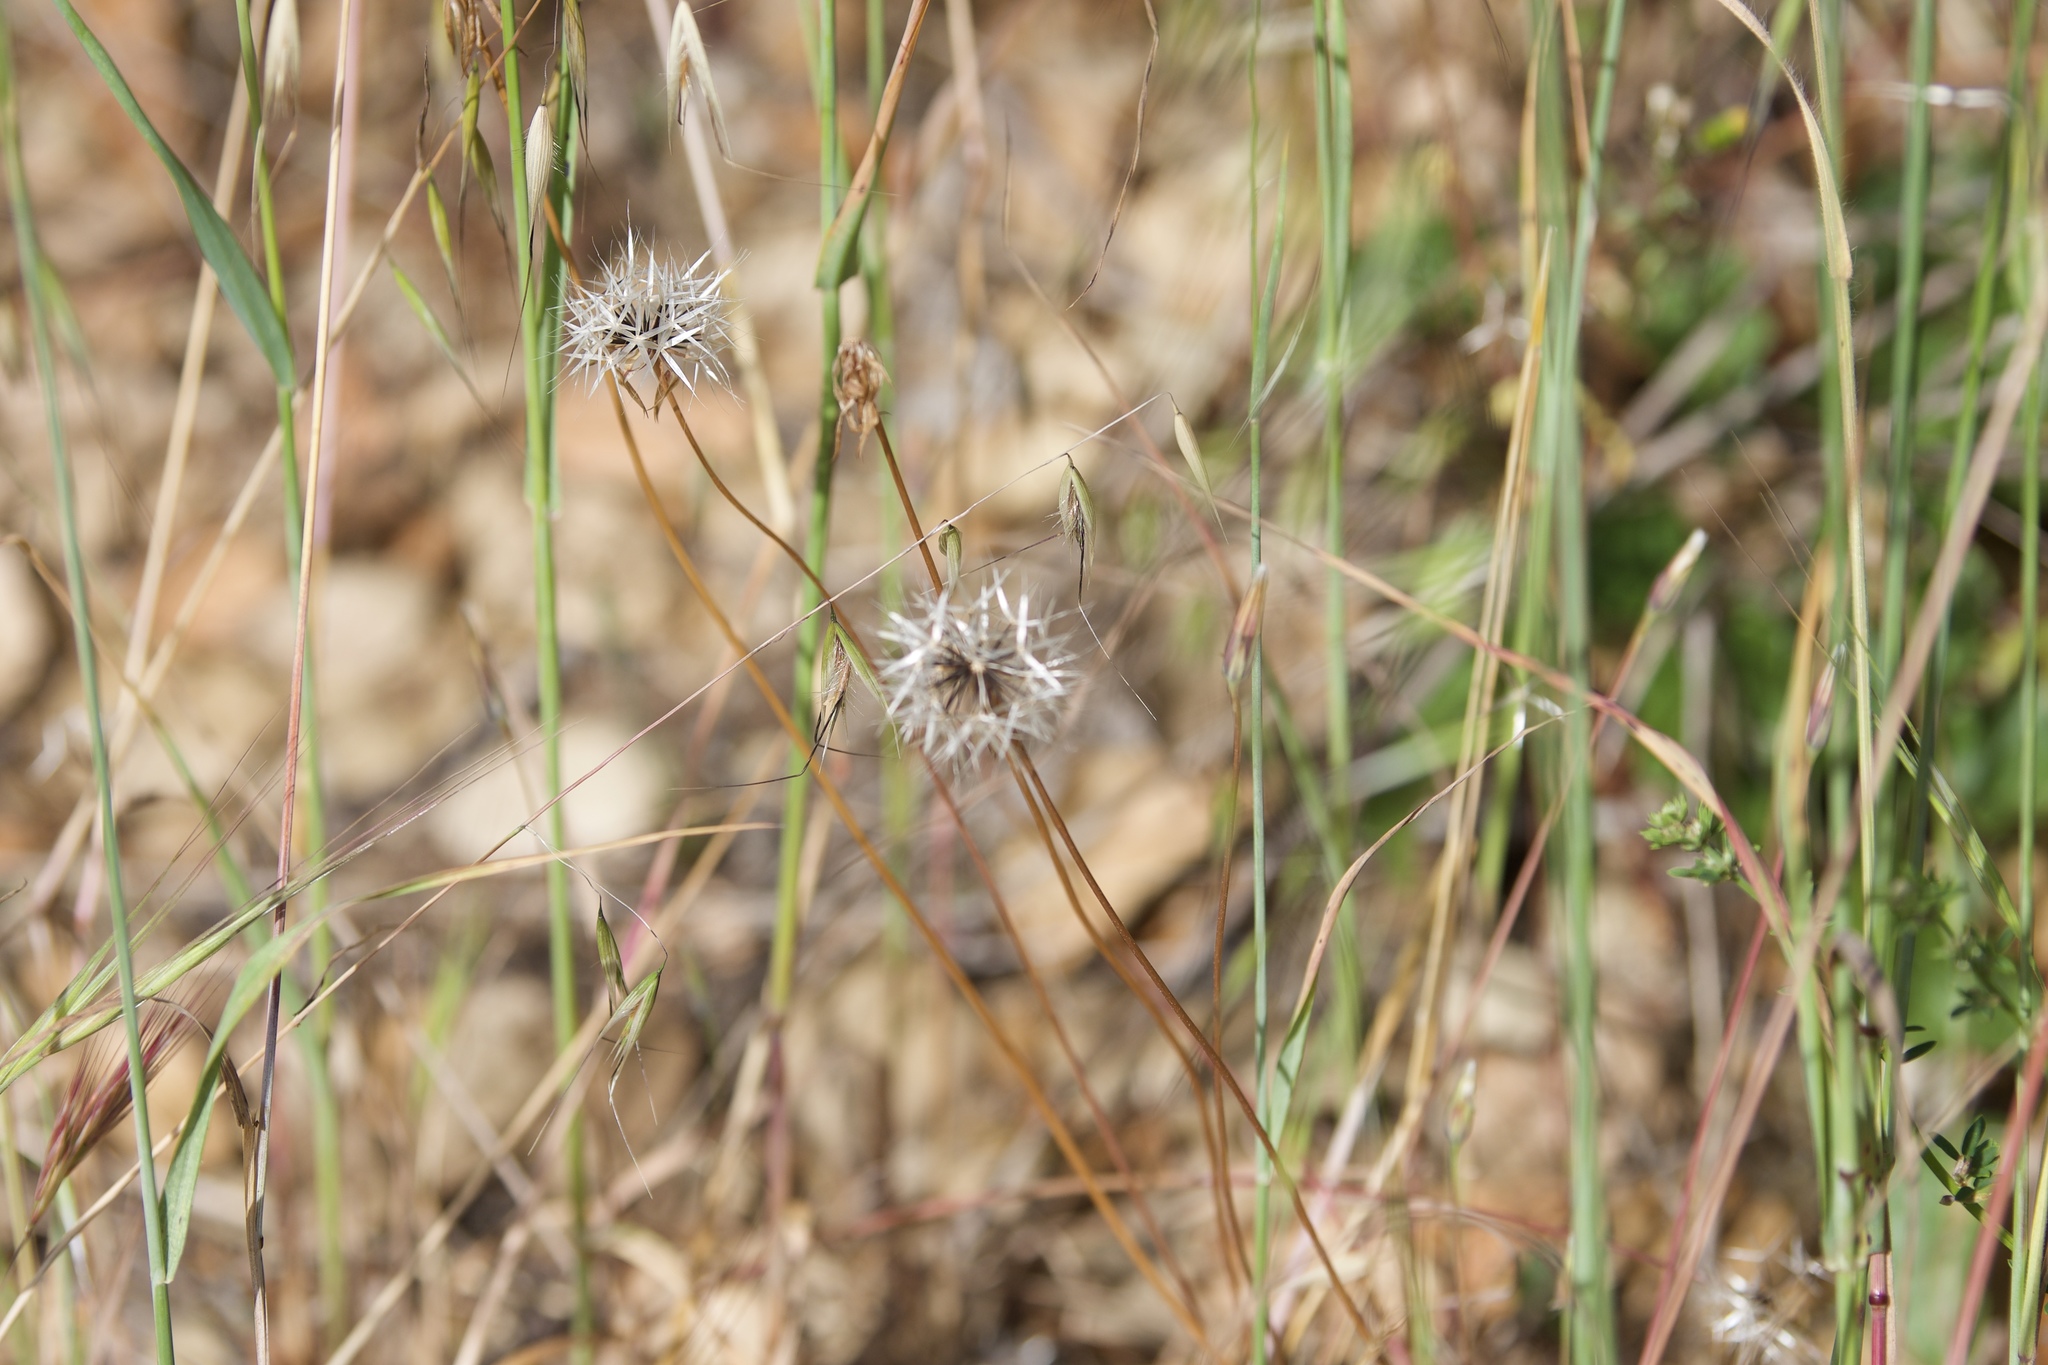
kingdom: Plantae
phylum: Tracheophyta
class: Magnoliopsida
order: Asterales
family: Asteraceae
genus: Microseris
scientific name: Microseris lindleyi
